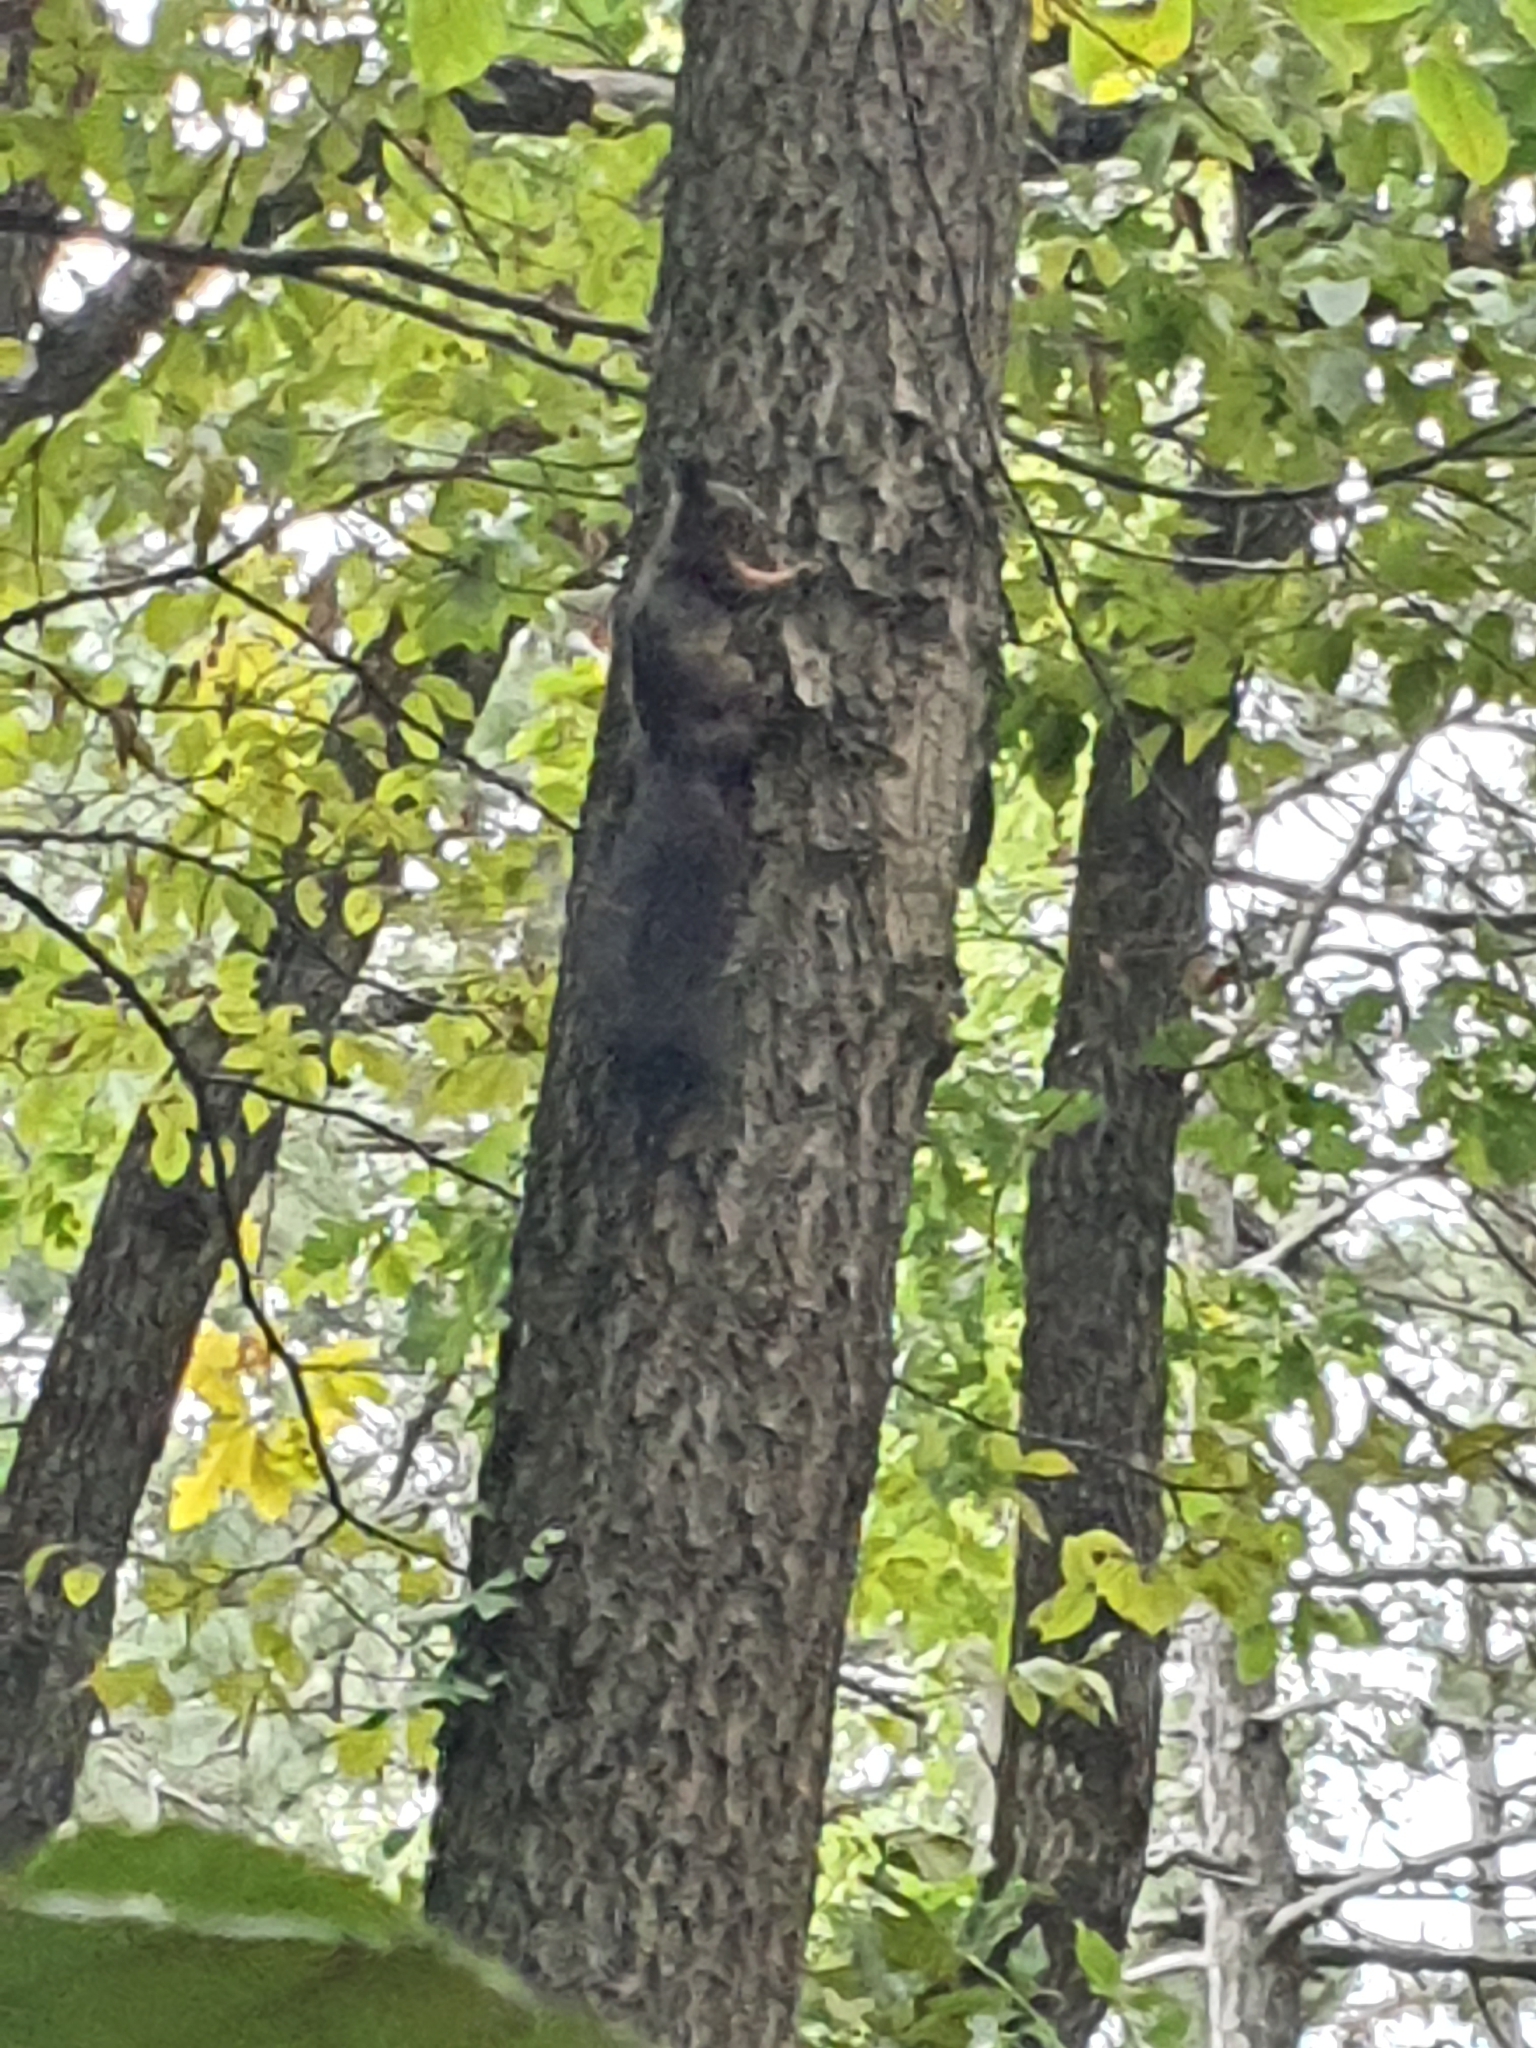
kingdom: Animalia
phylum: Chordata
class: Mammalia
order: Rodentia
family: Sciuridae
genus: Sciurus
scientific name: Sciurus vulgaris
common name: Eurasian red squirrel
